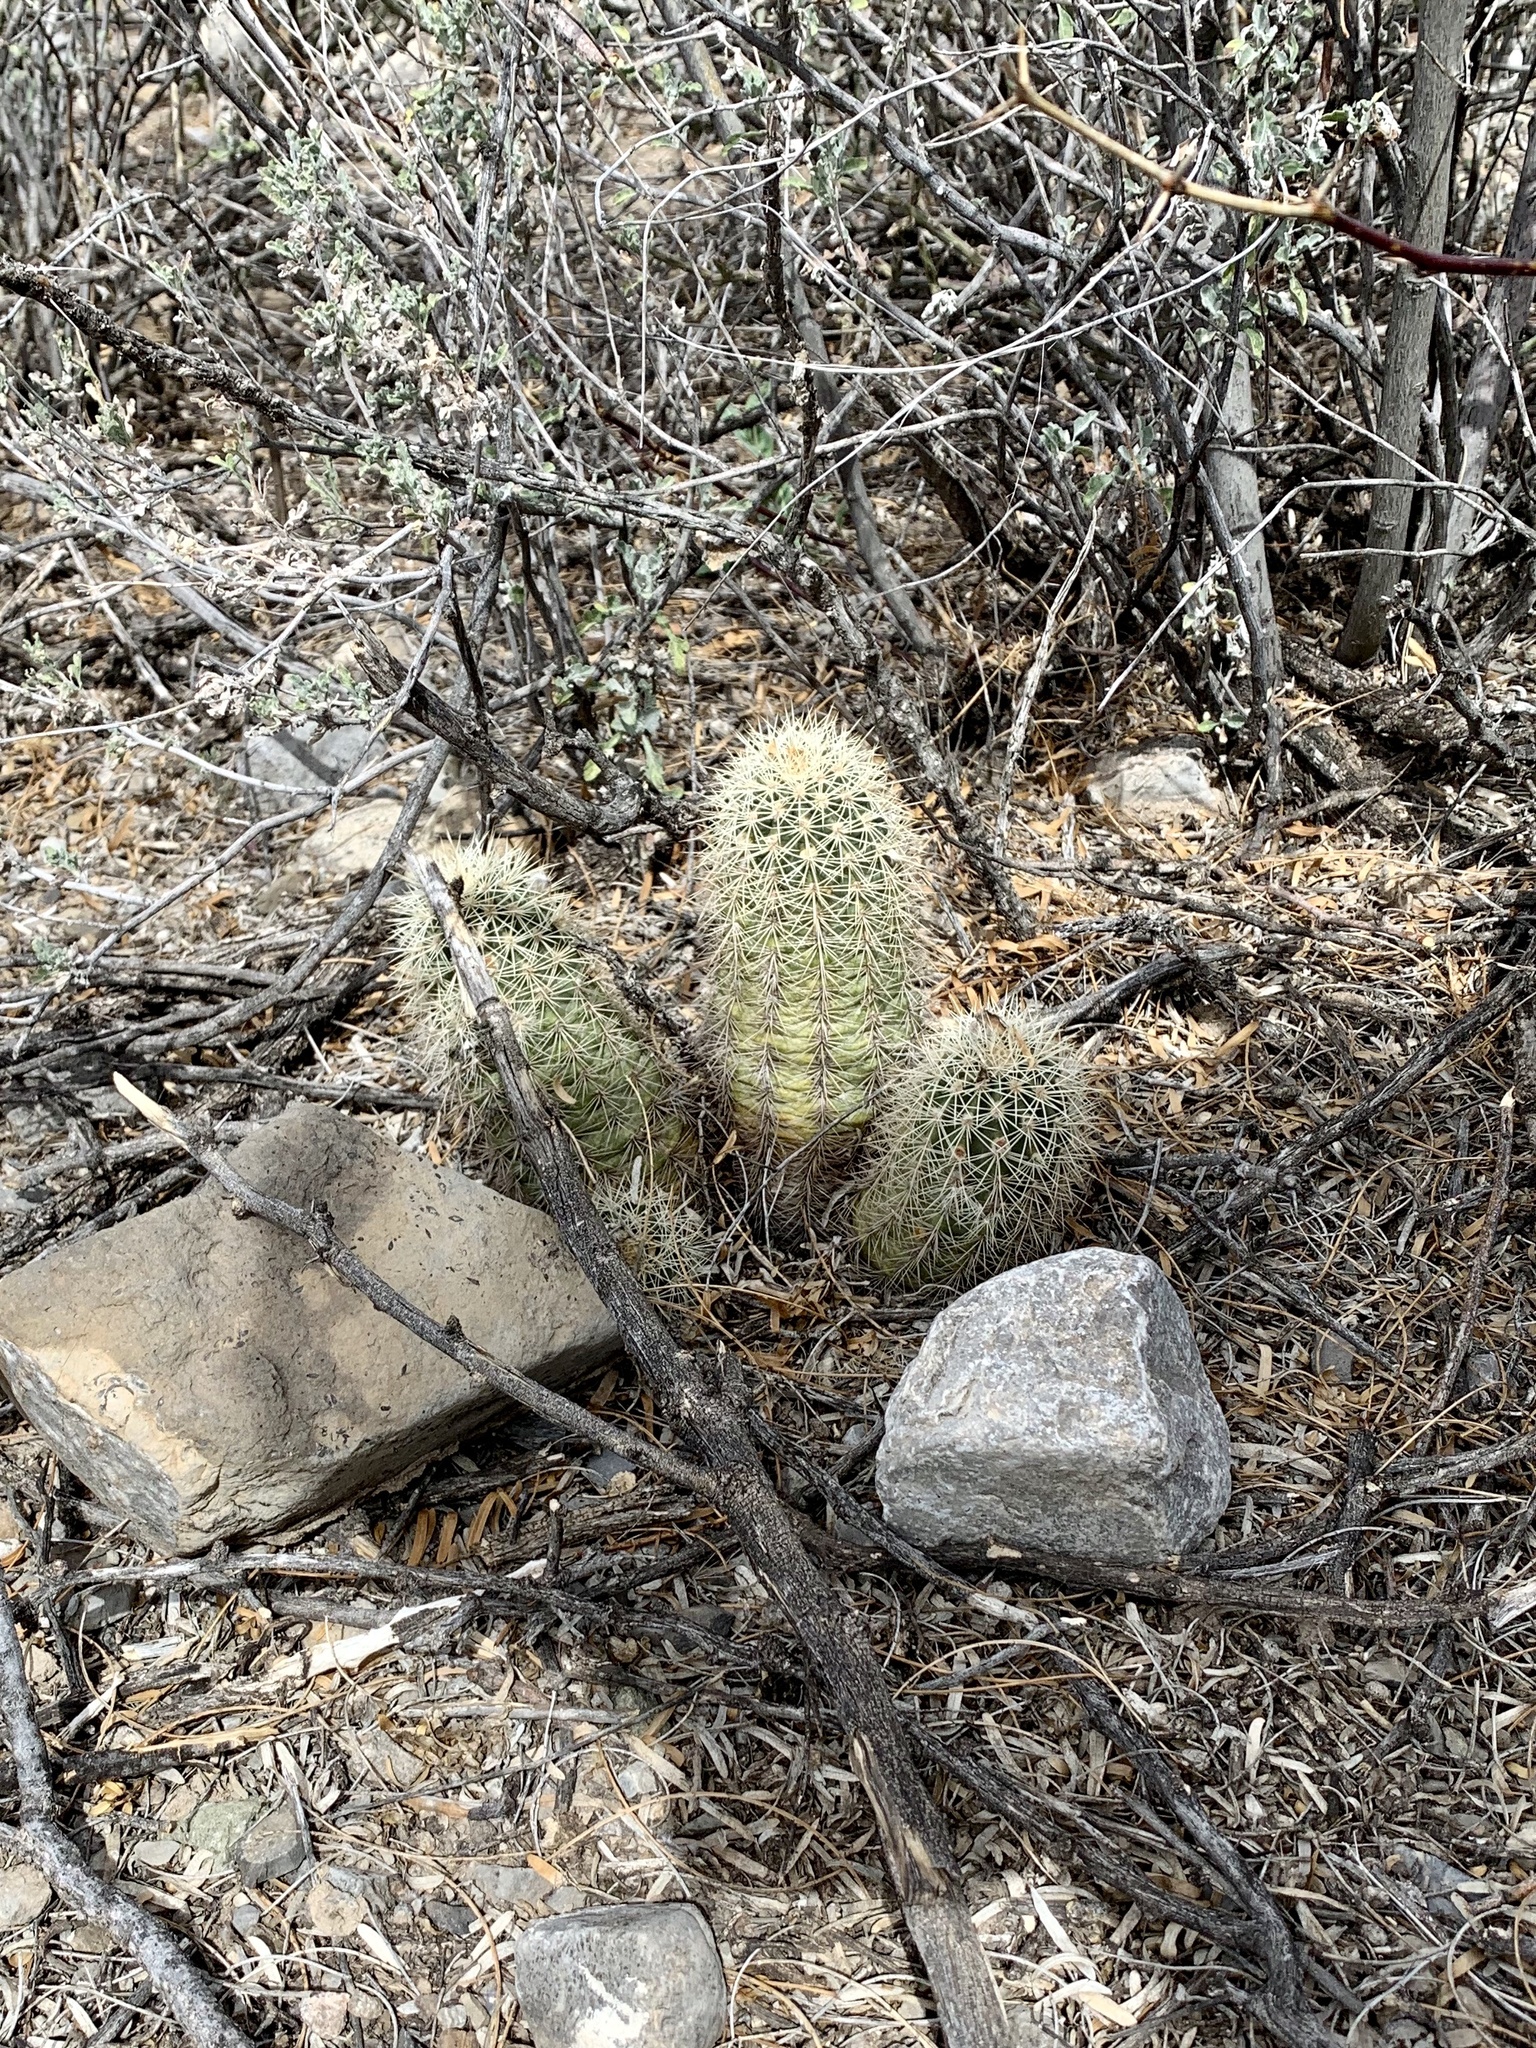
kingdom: Plantae
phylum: Tracheophyta
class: Magnoliopsida
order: Caryophyllales
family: Cactaceae
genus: Echinocereus
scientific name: Echinocereus coccineus
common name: Scarlet hedgehog cactus
